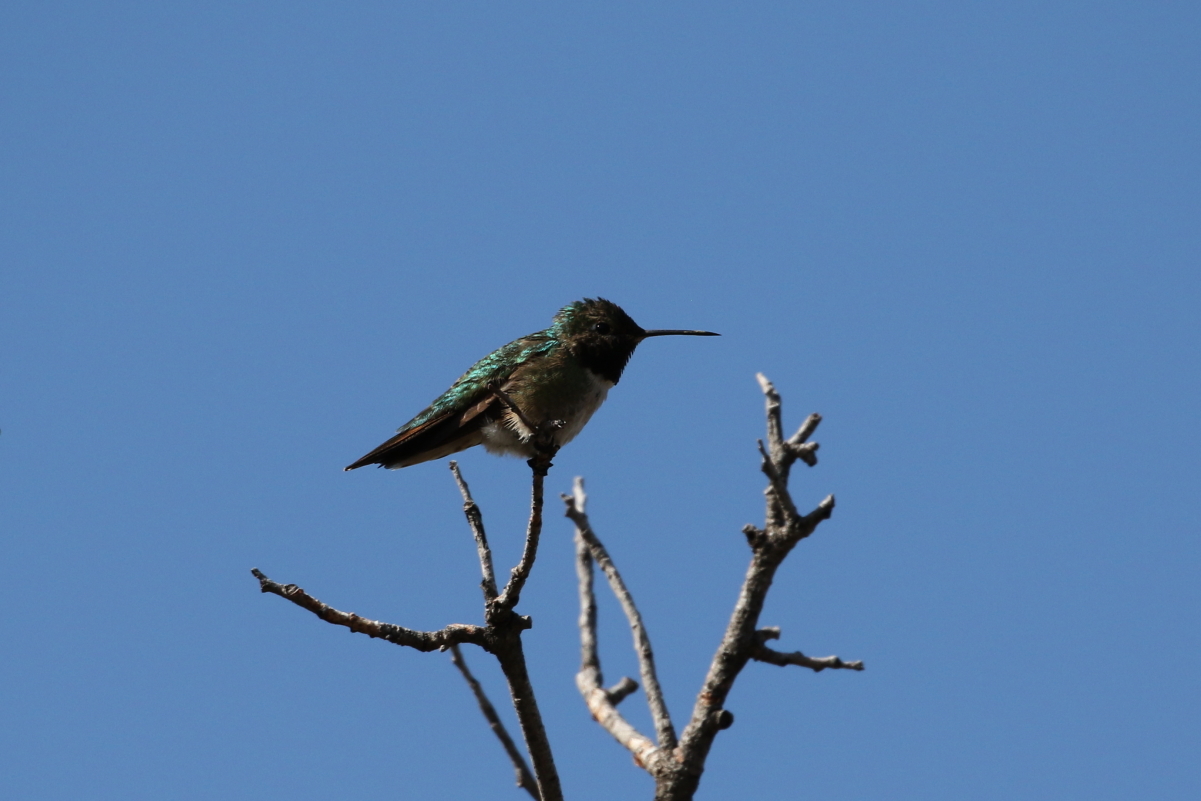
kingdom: Animalia
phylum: Chordata
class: Aves
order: Apodiformes
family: Trochilidae
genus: Selasphorus
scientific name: Selasphorus platycercus
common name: Broad-tailed hummingbird
